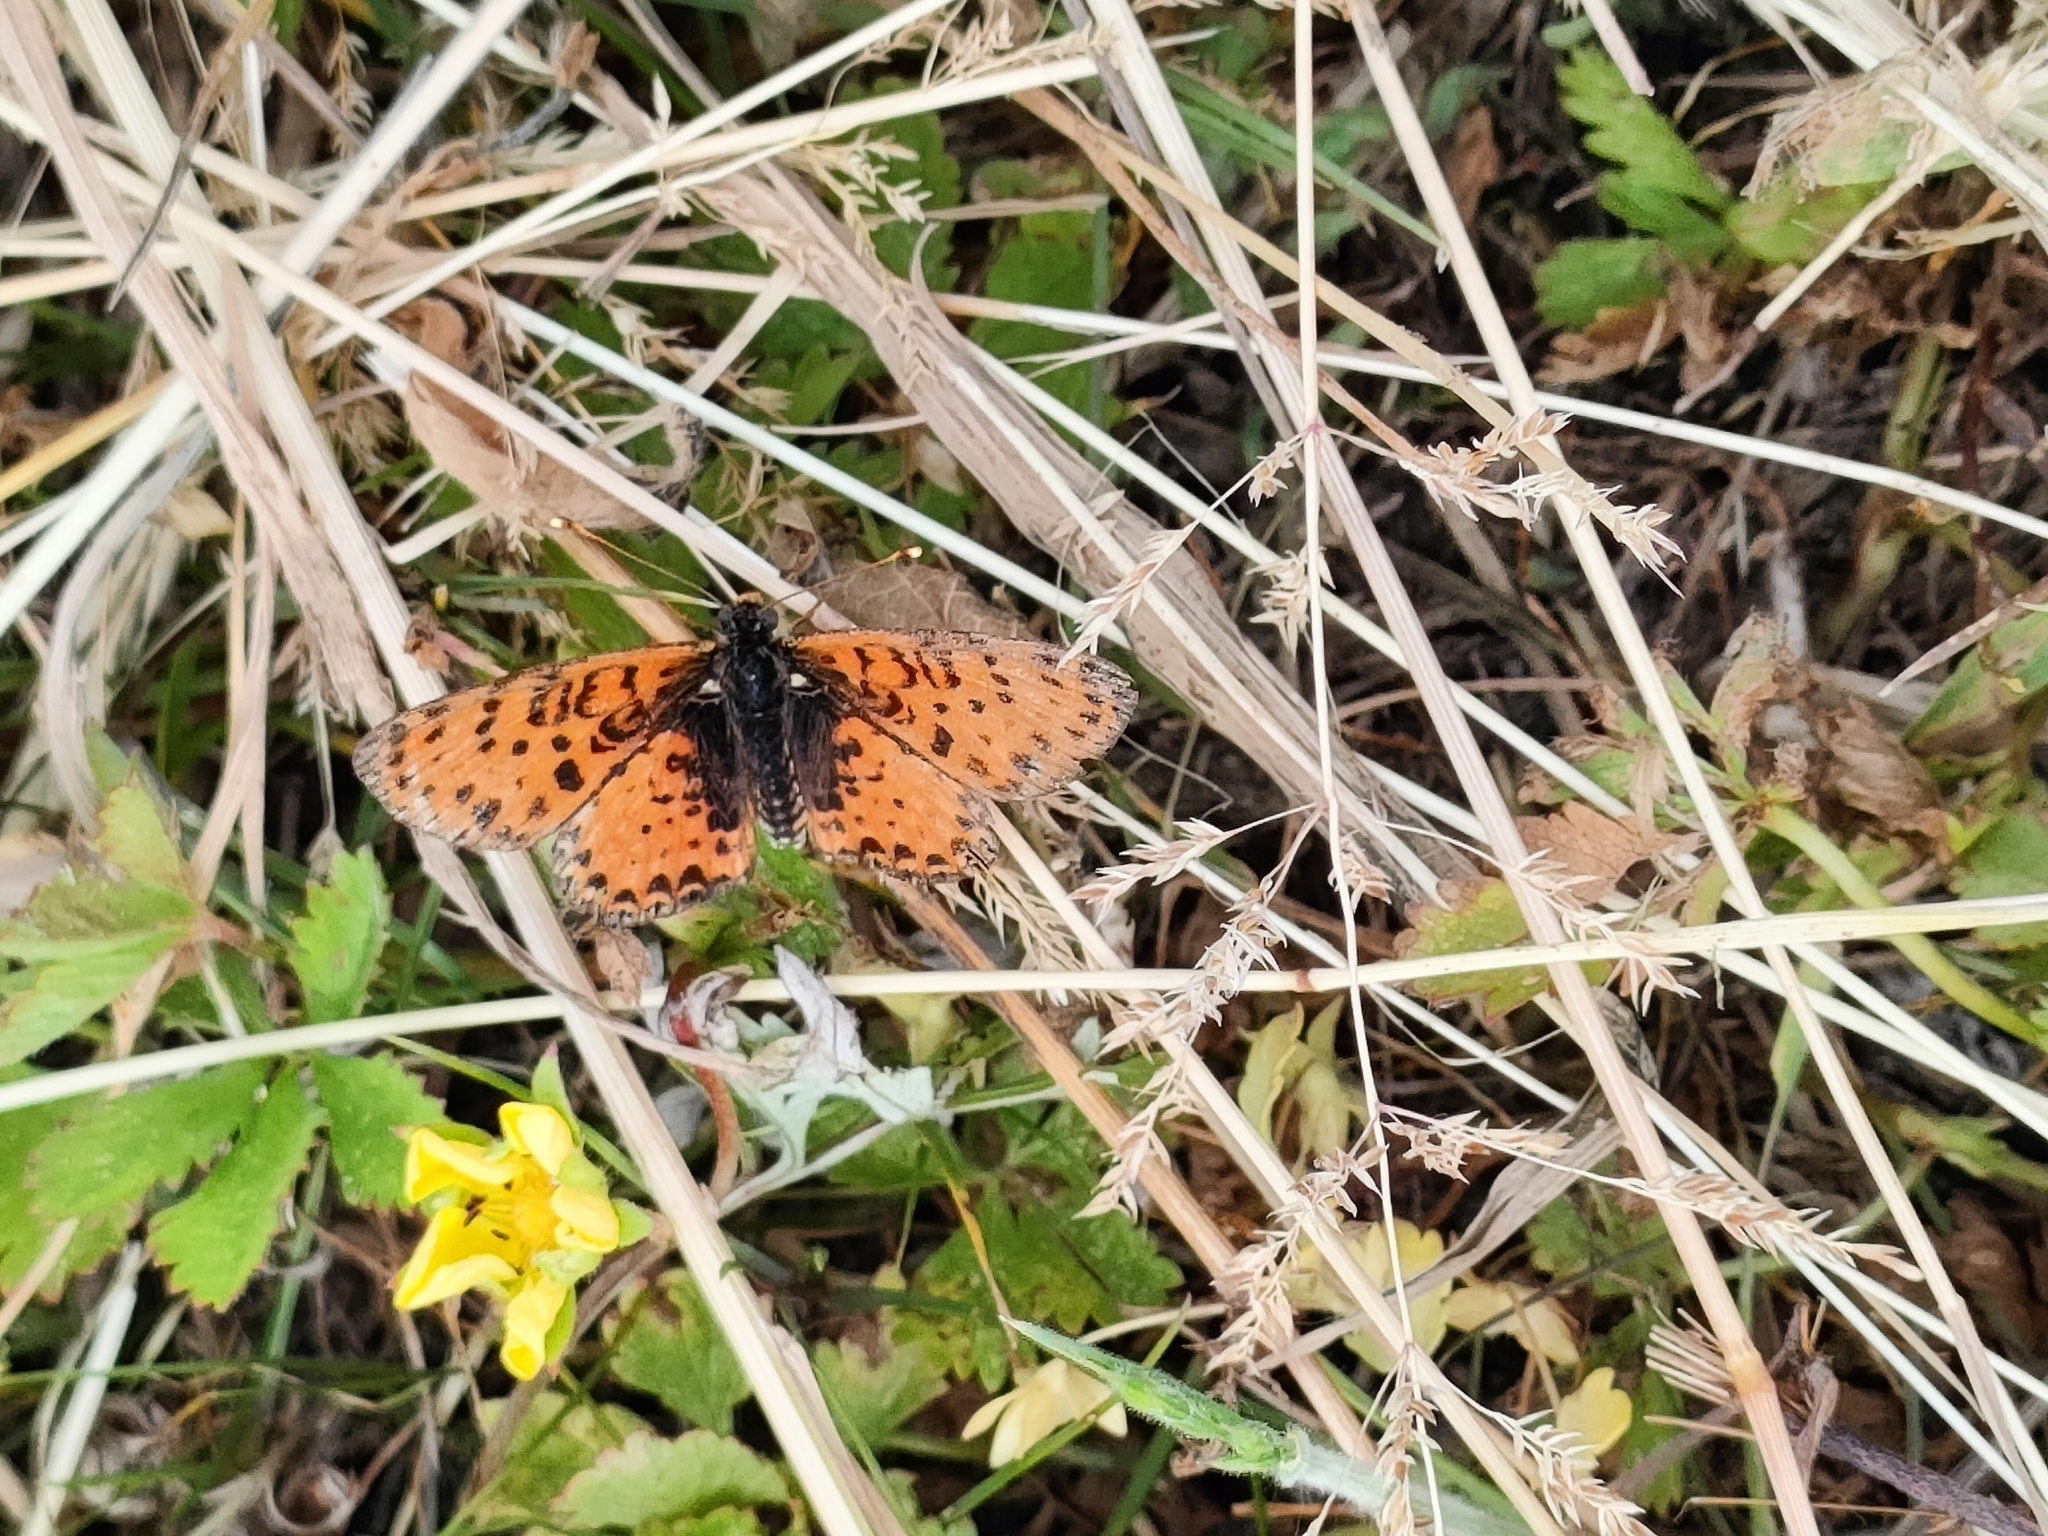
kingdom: Animalia
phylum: Arthropoda
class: Insecta
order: Lepidoptera
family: Nymphalidae
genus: Melitaea
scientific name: Melitaea didyma
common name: Spotted fritillary
